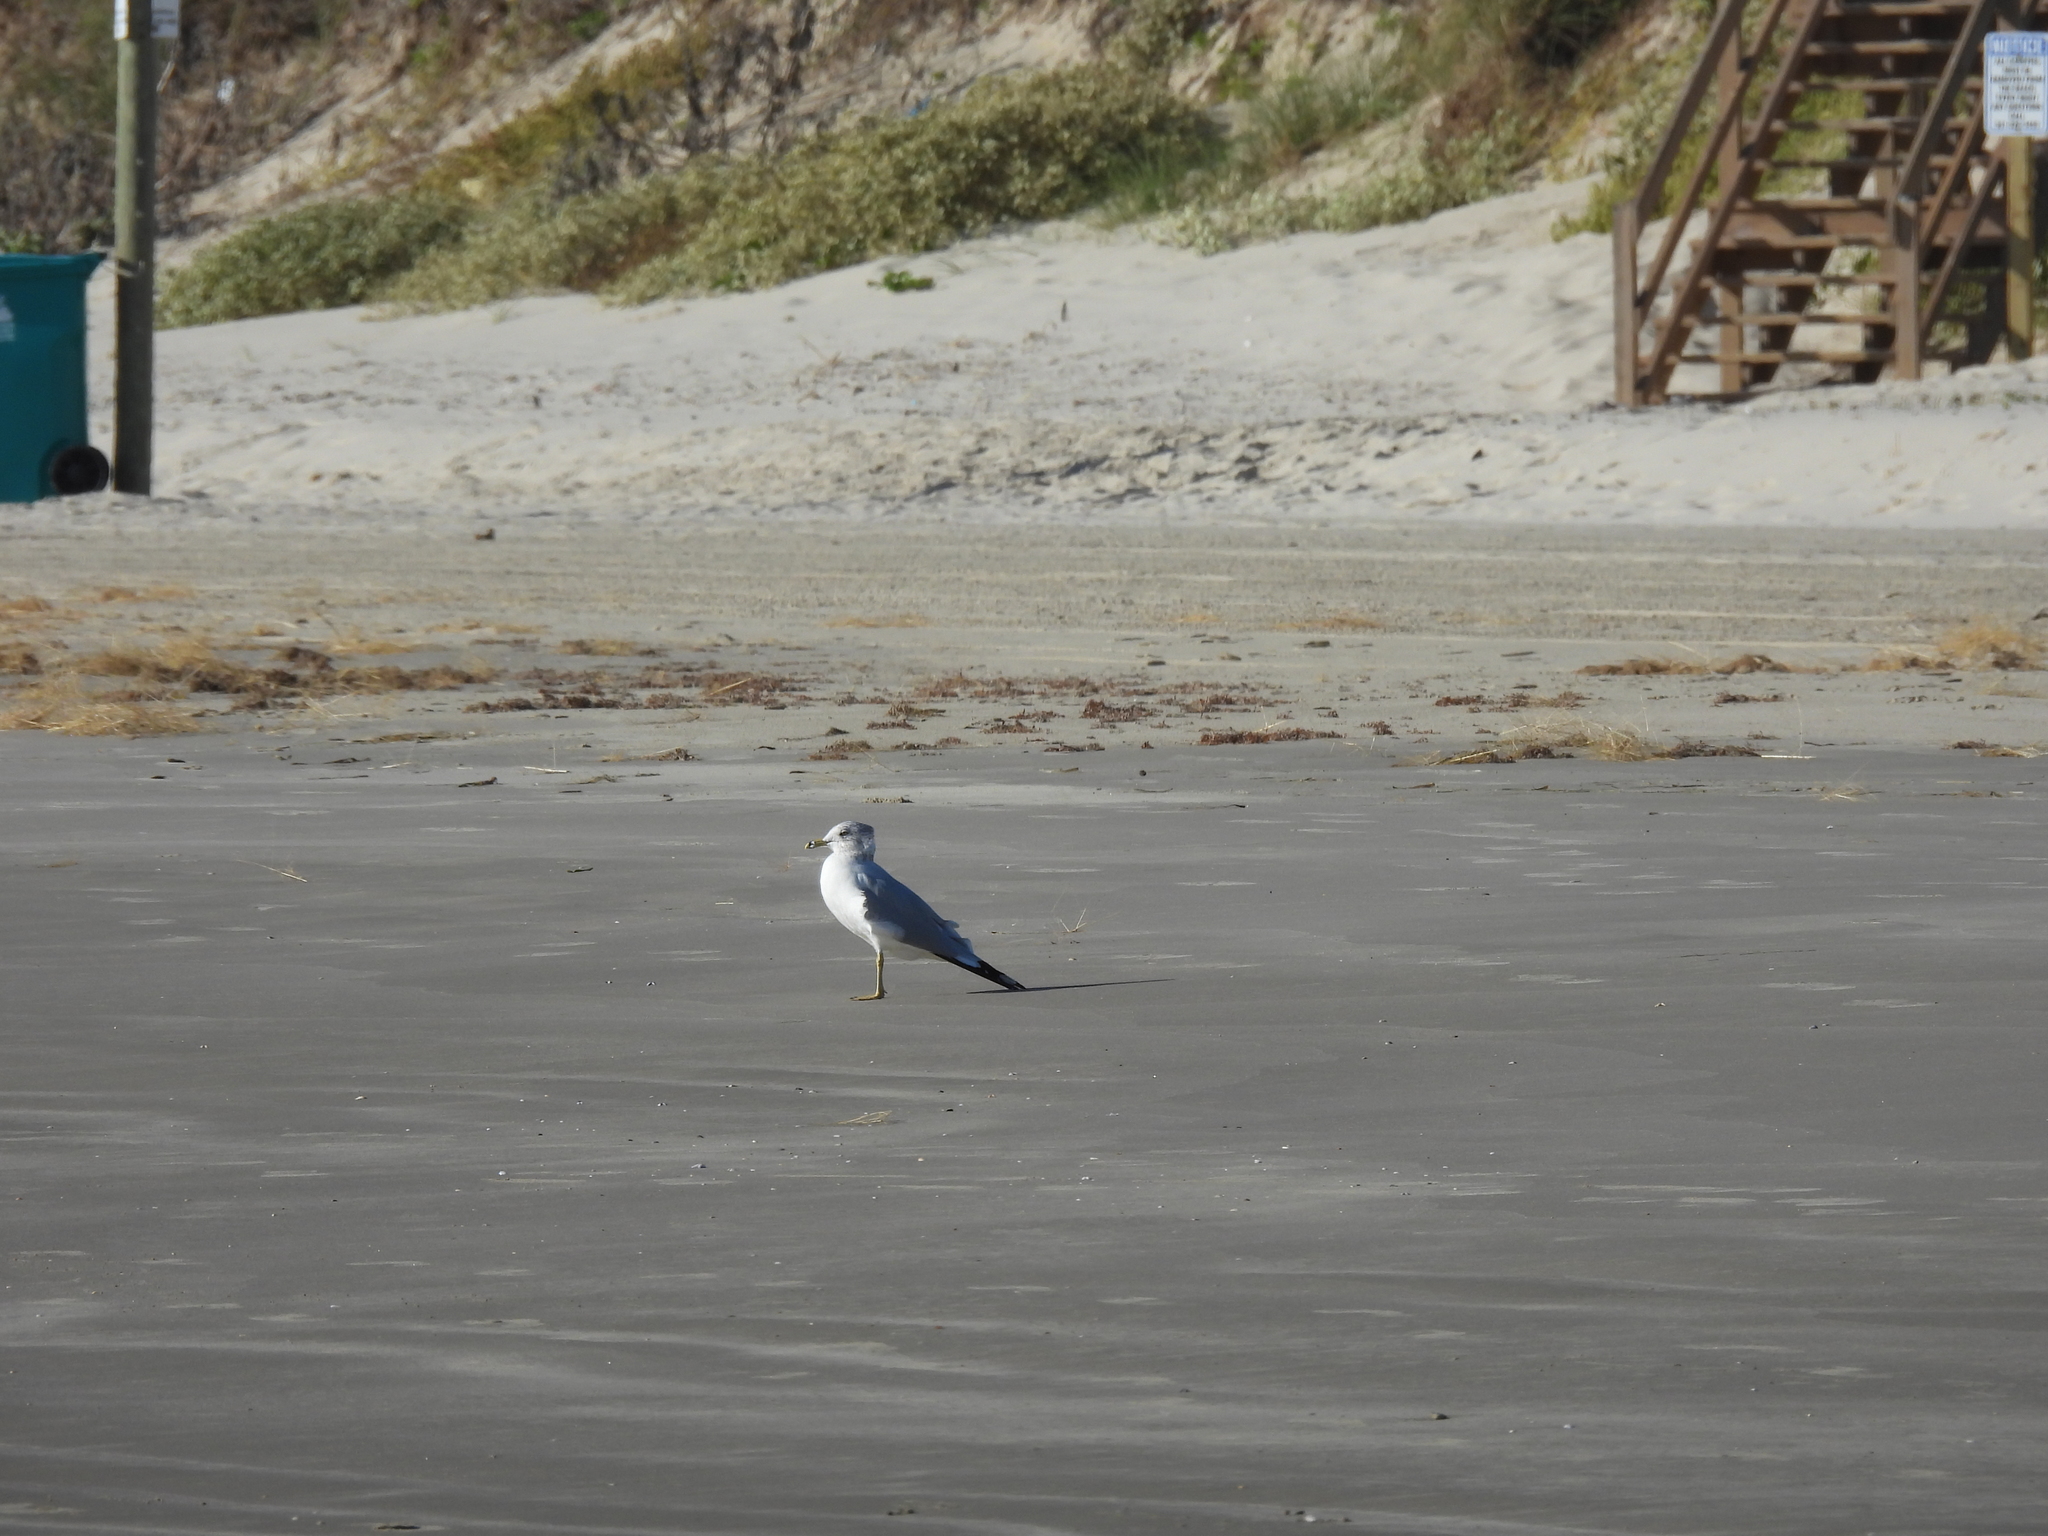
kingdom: Animalia
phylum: Chordata
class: Aves
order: Charadriiformes
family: Laridae
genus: Larus
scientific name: Larus delawarensis
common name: Ring-billed gull
